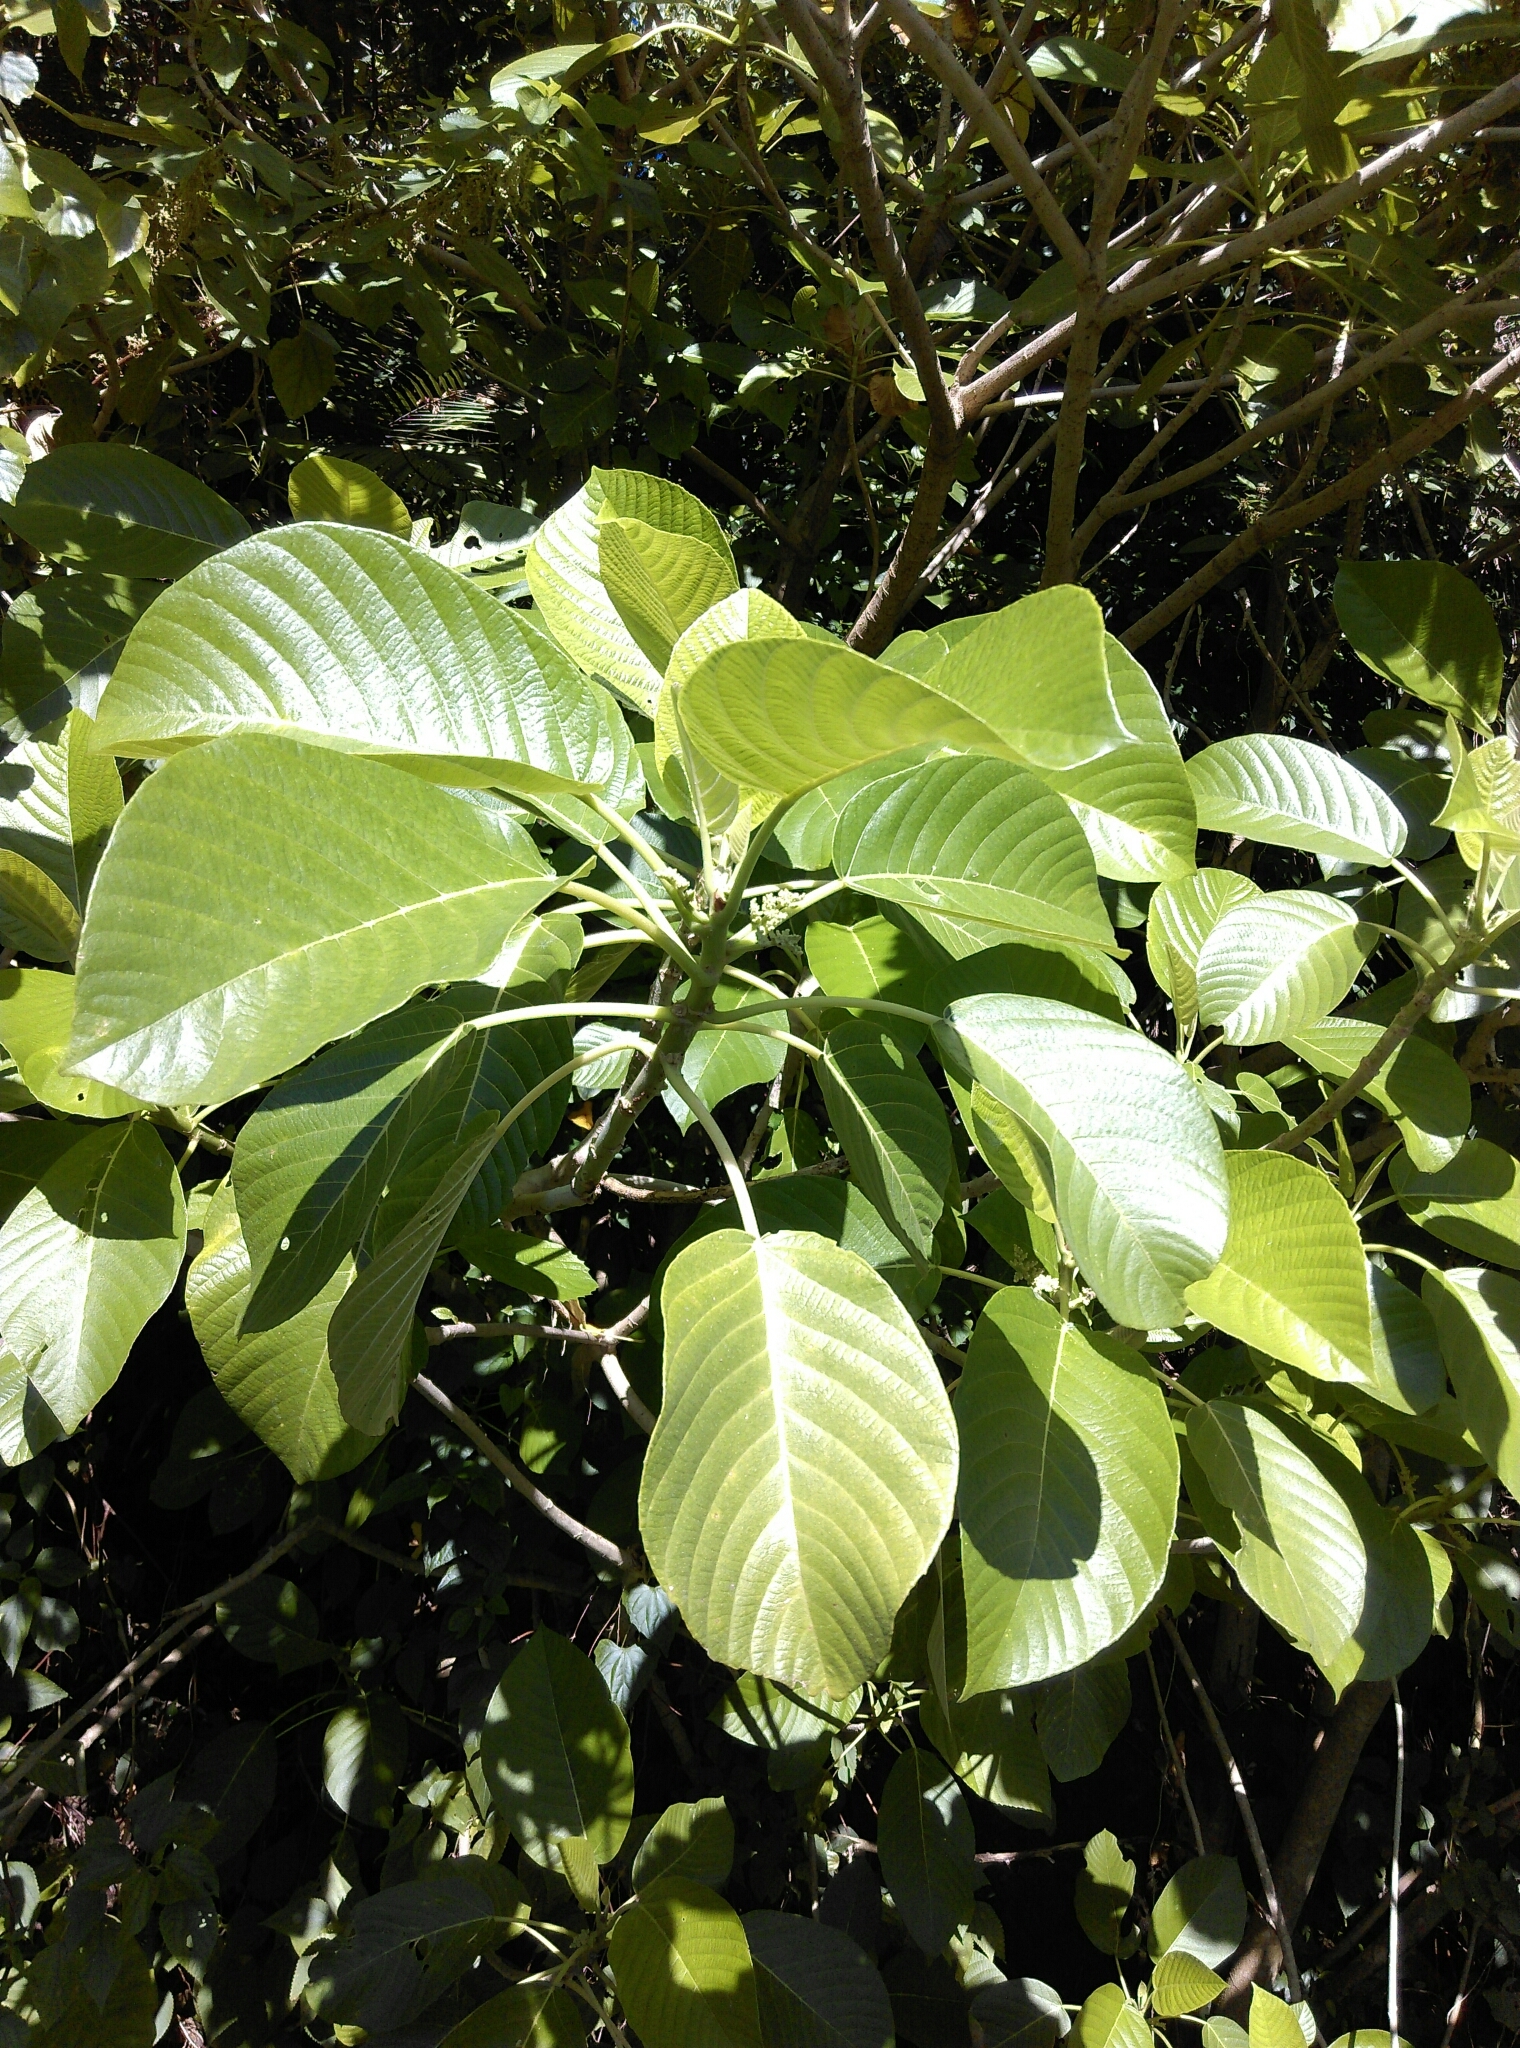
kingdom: Plantae
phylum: Tracheophyta
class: Magnoliopsida
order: Rosales
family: Urticaceae
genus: Dendrocnide
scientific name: Dendrocnide meyeniana
